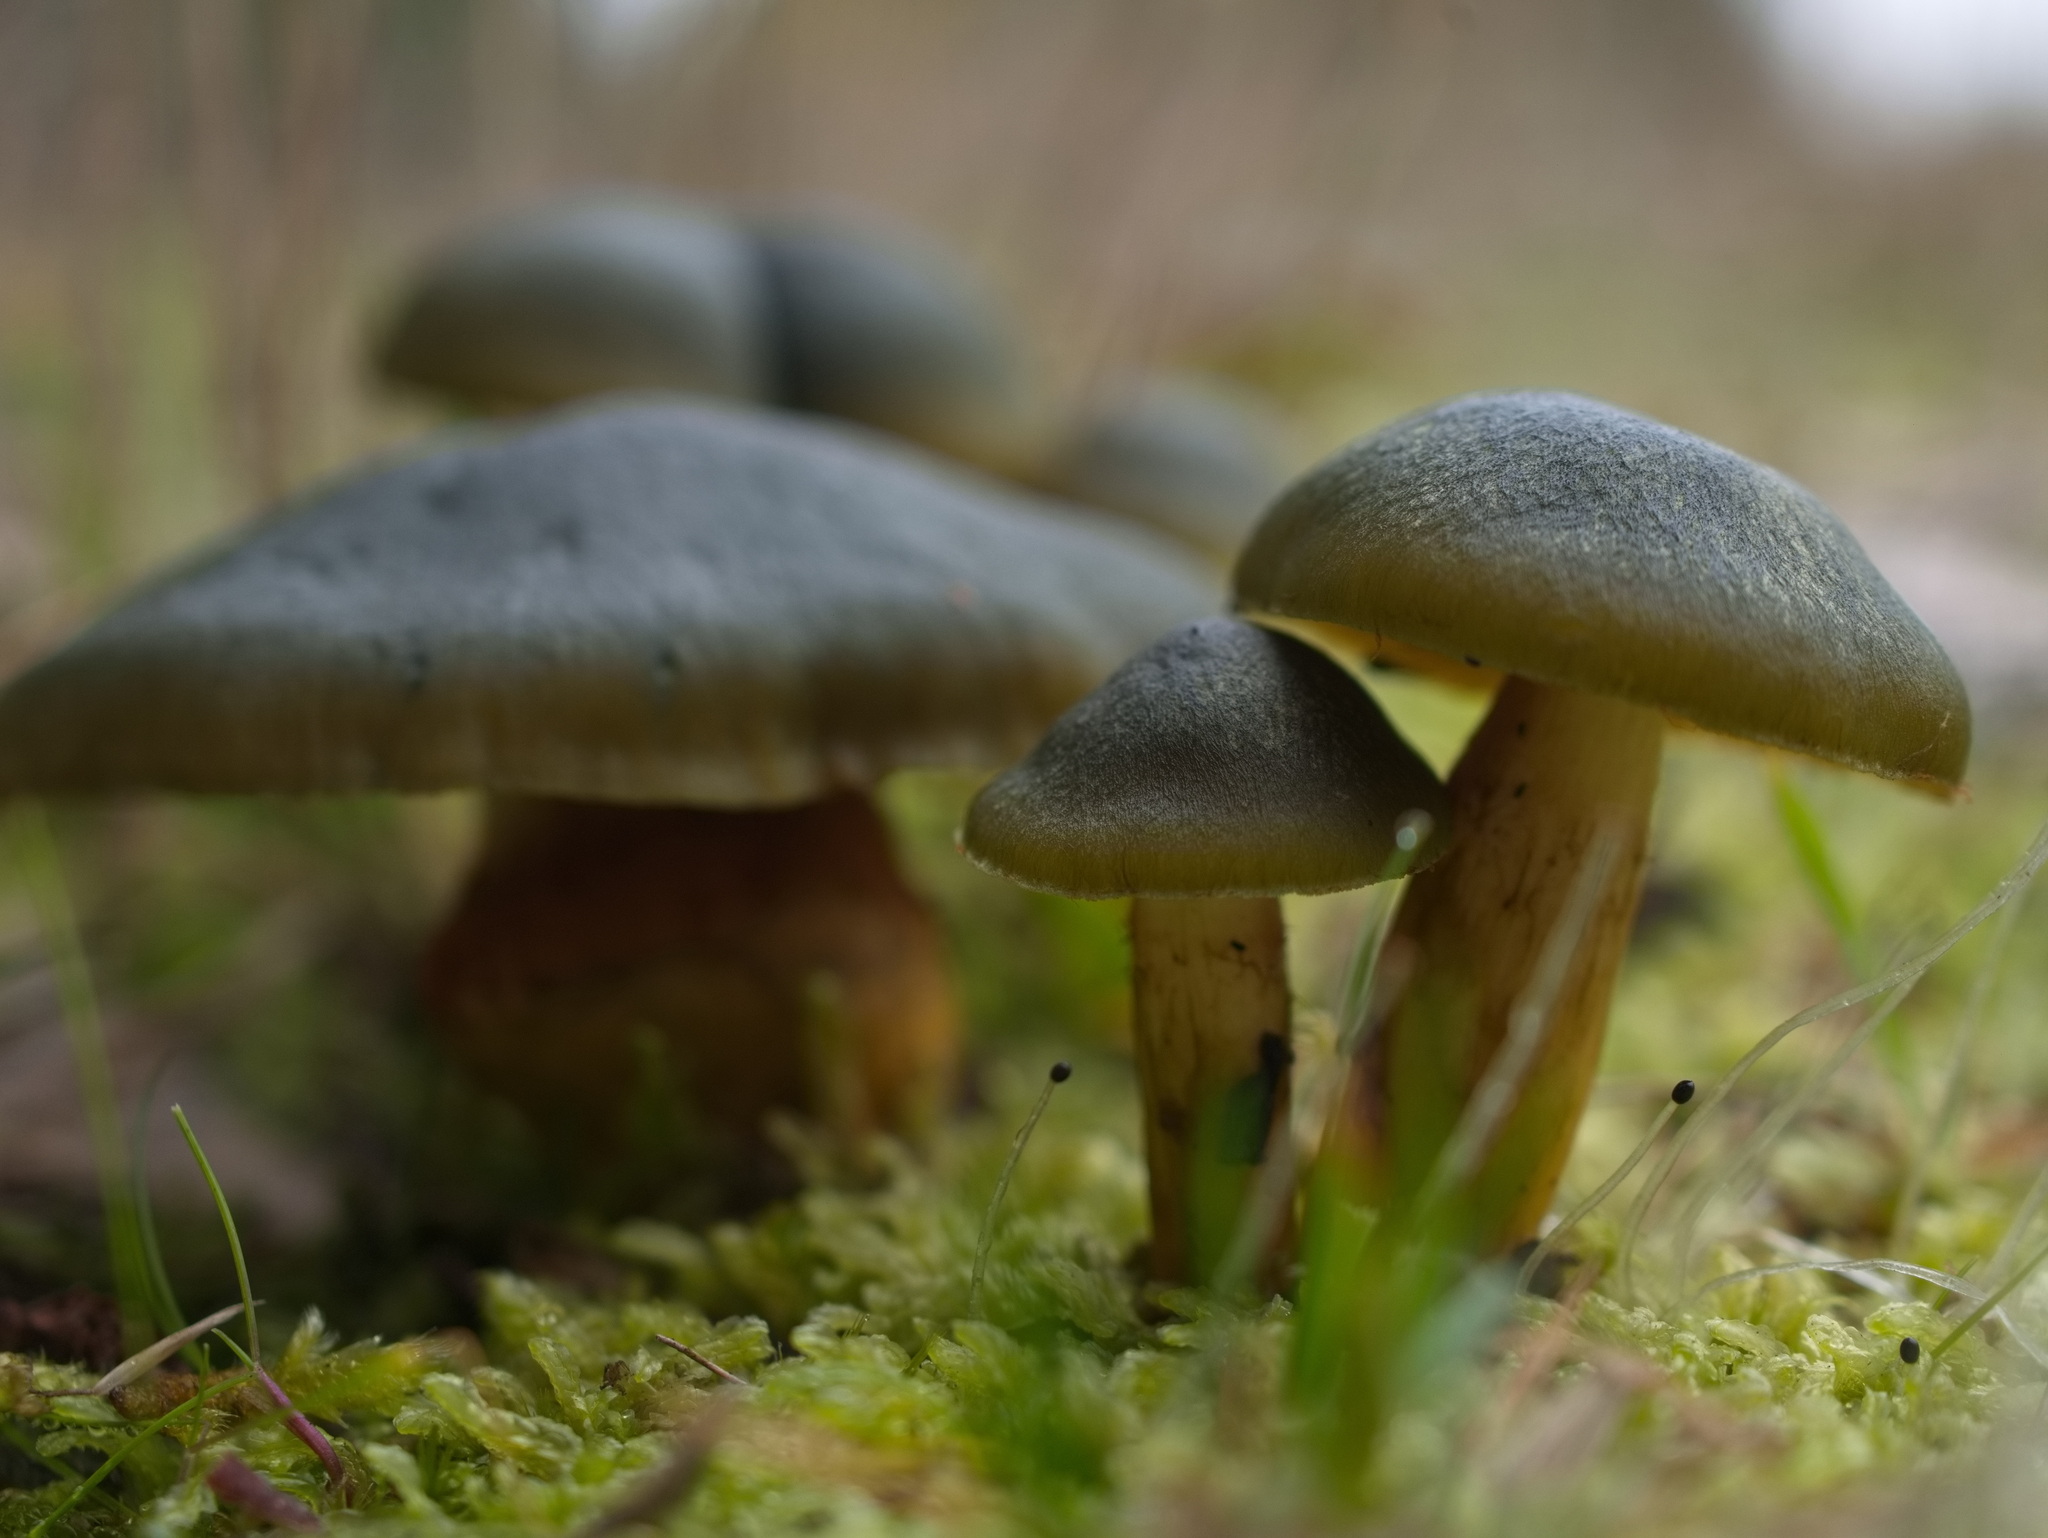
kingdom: Fungi
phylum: Basidiomycota
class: Agaricomycetes
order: Agaricales
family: Cortinariaceae
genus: Cortinarius
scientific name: Cortinarius austrovenetus
